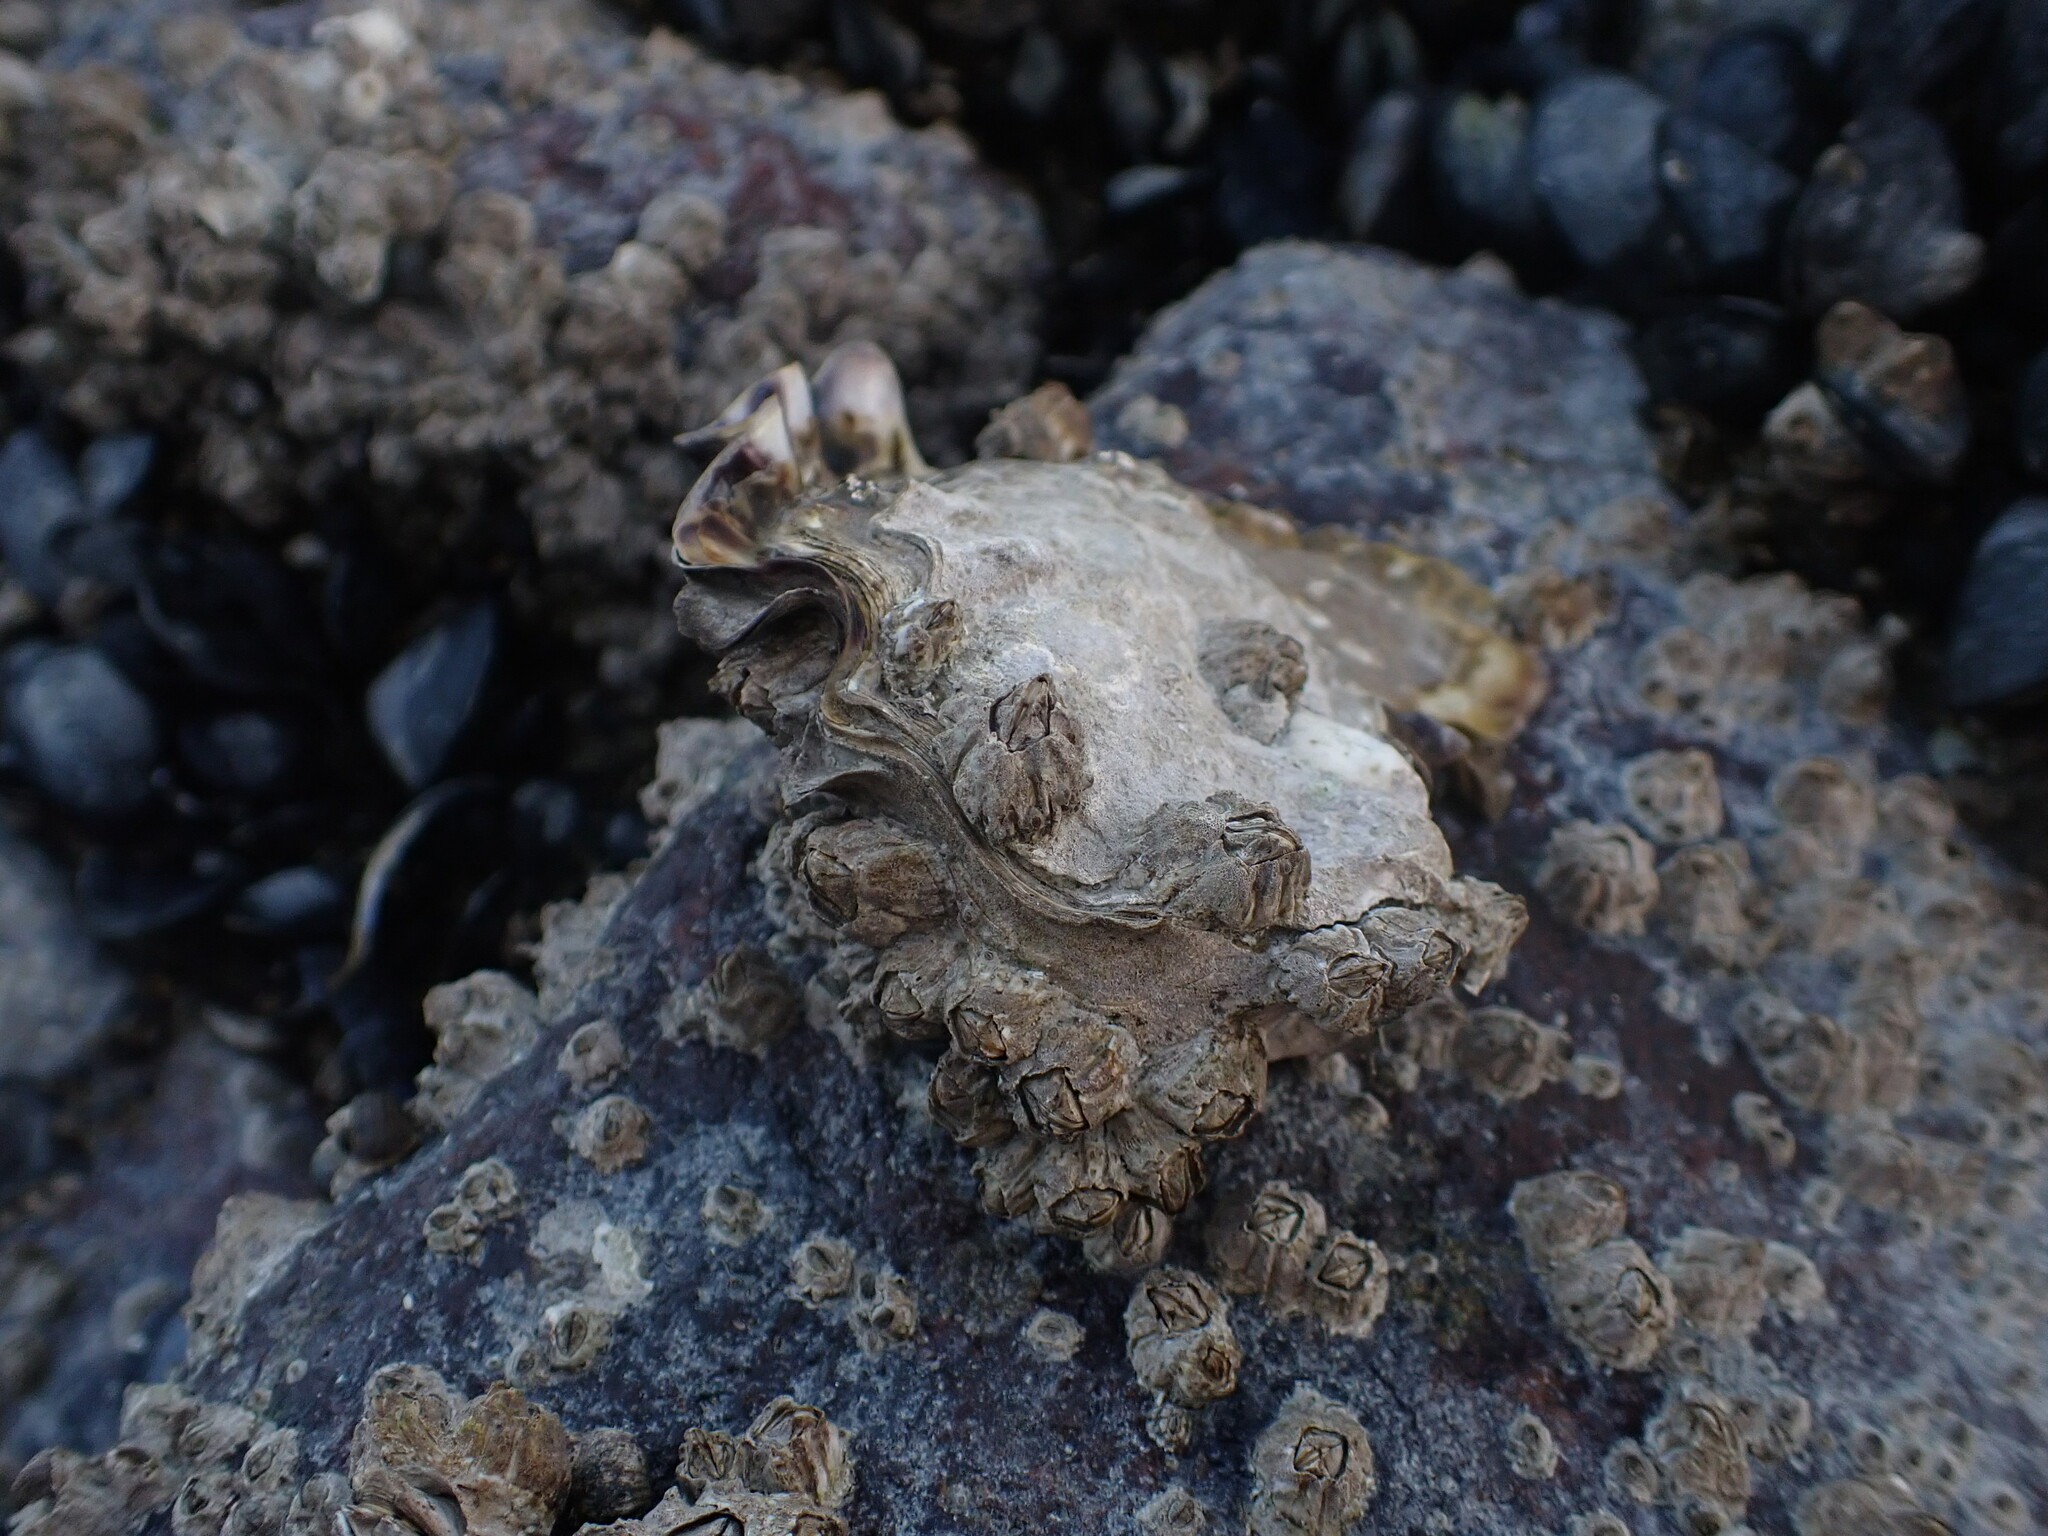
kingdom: Animalia
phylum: Mollusca
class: Bivalvia
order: Ostreida
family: Ostreidae
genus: Magallana
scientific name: Magallana gigas
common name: Pacific oyster
